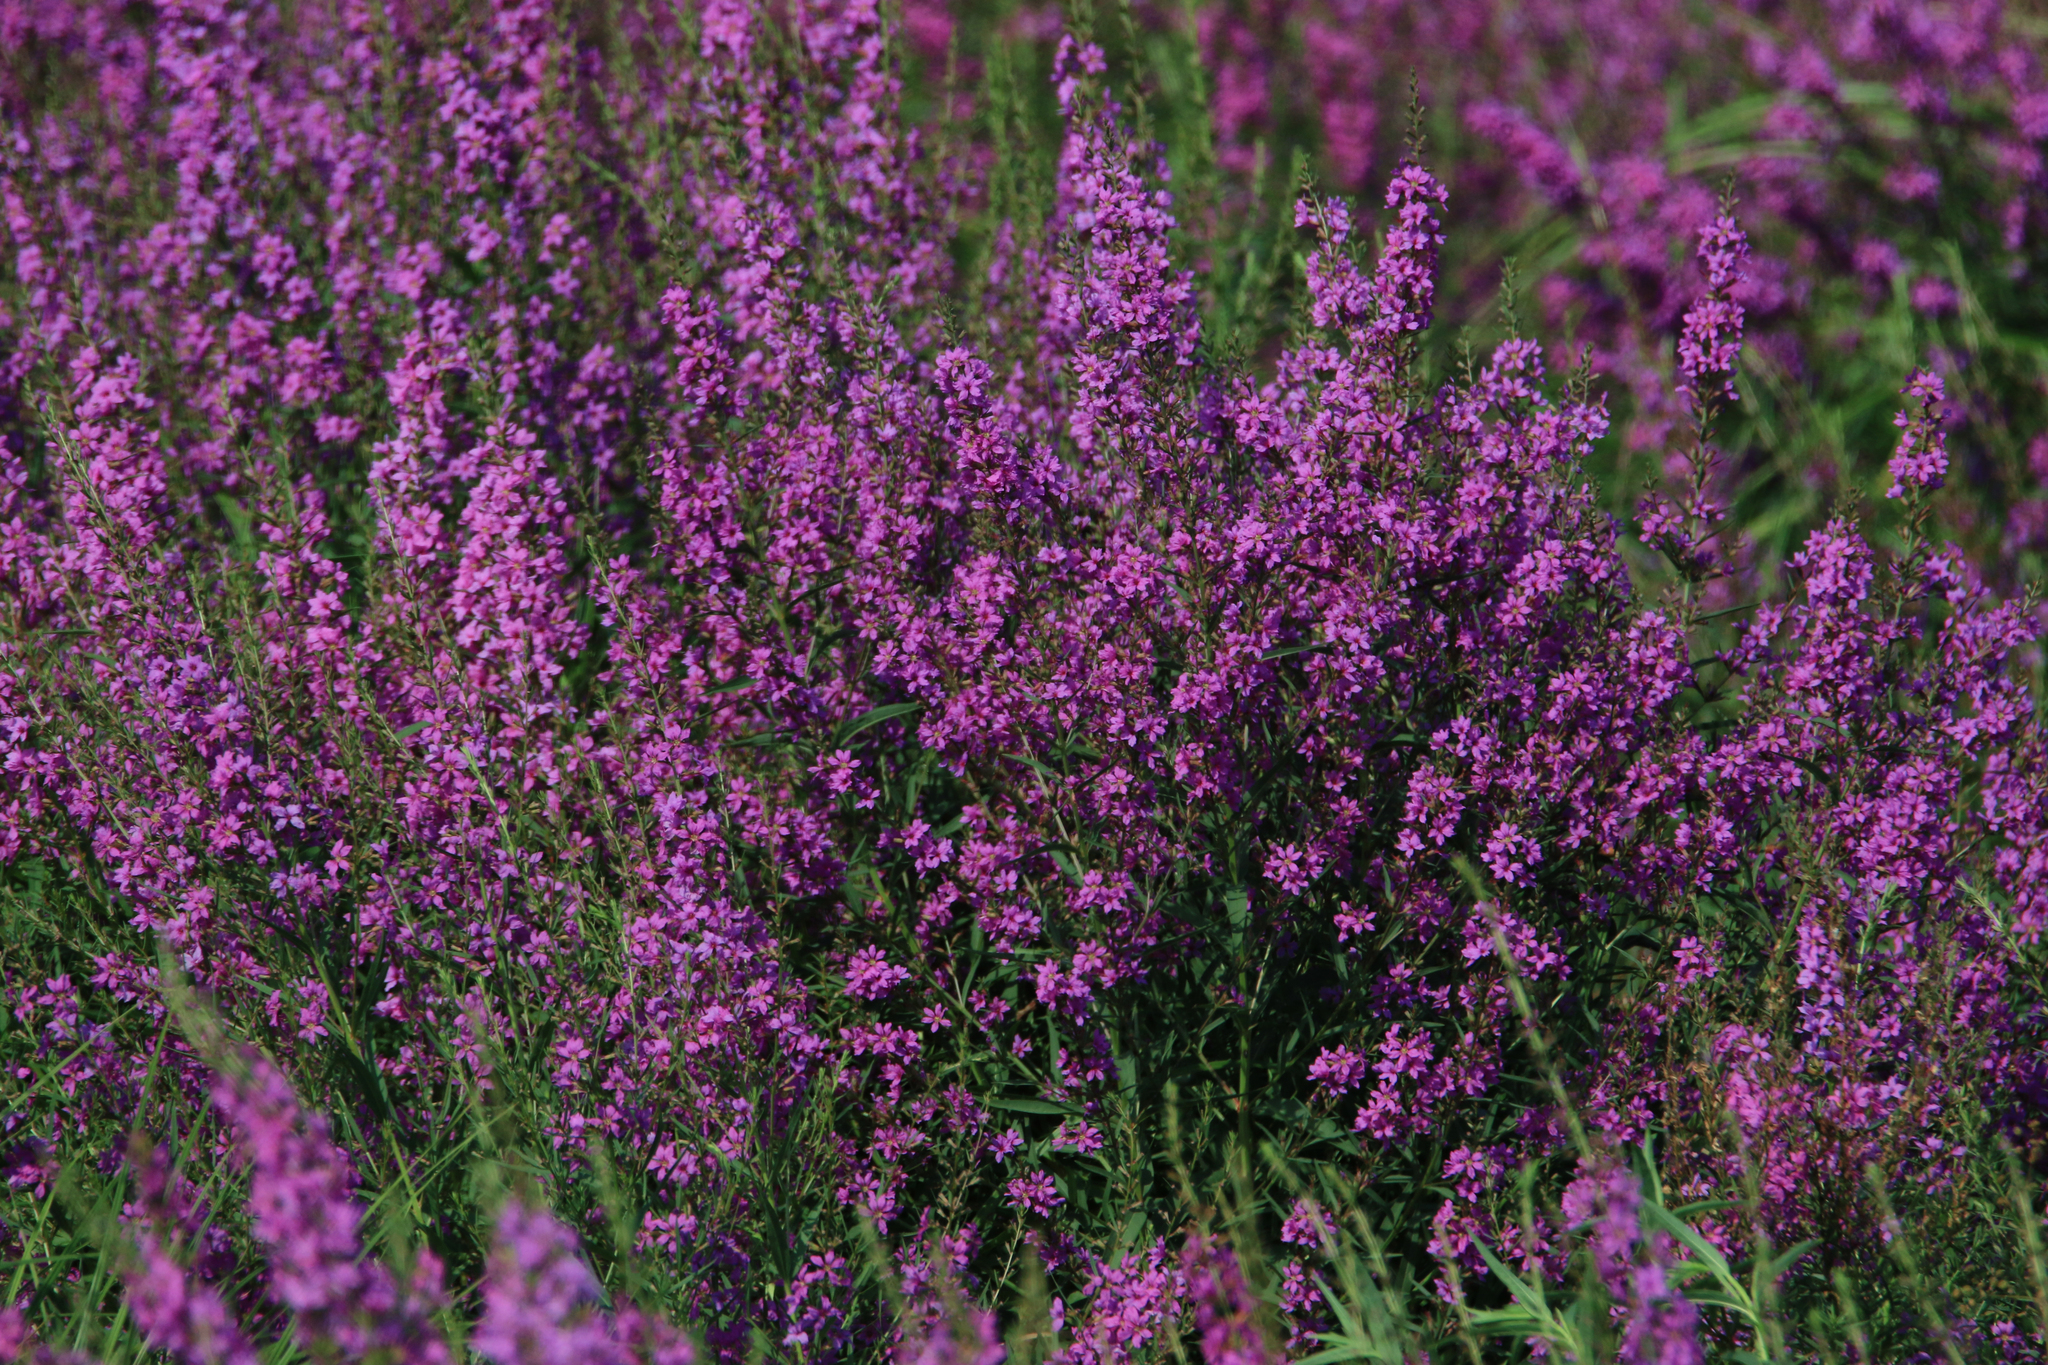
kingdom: Plantae
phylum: Tracheophyta
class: Magnoliopsida
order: Myrtales
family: Lythraceae
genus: Lythrum
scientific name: Lythrum salicaria
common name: Purple loosestrife
